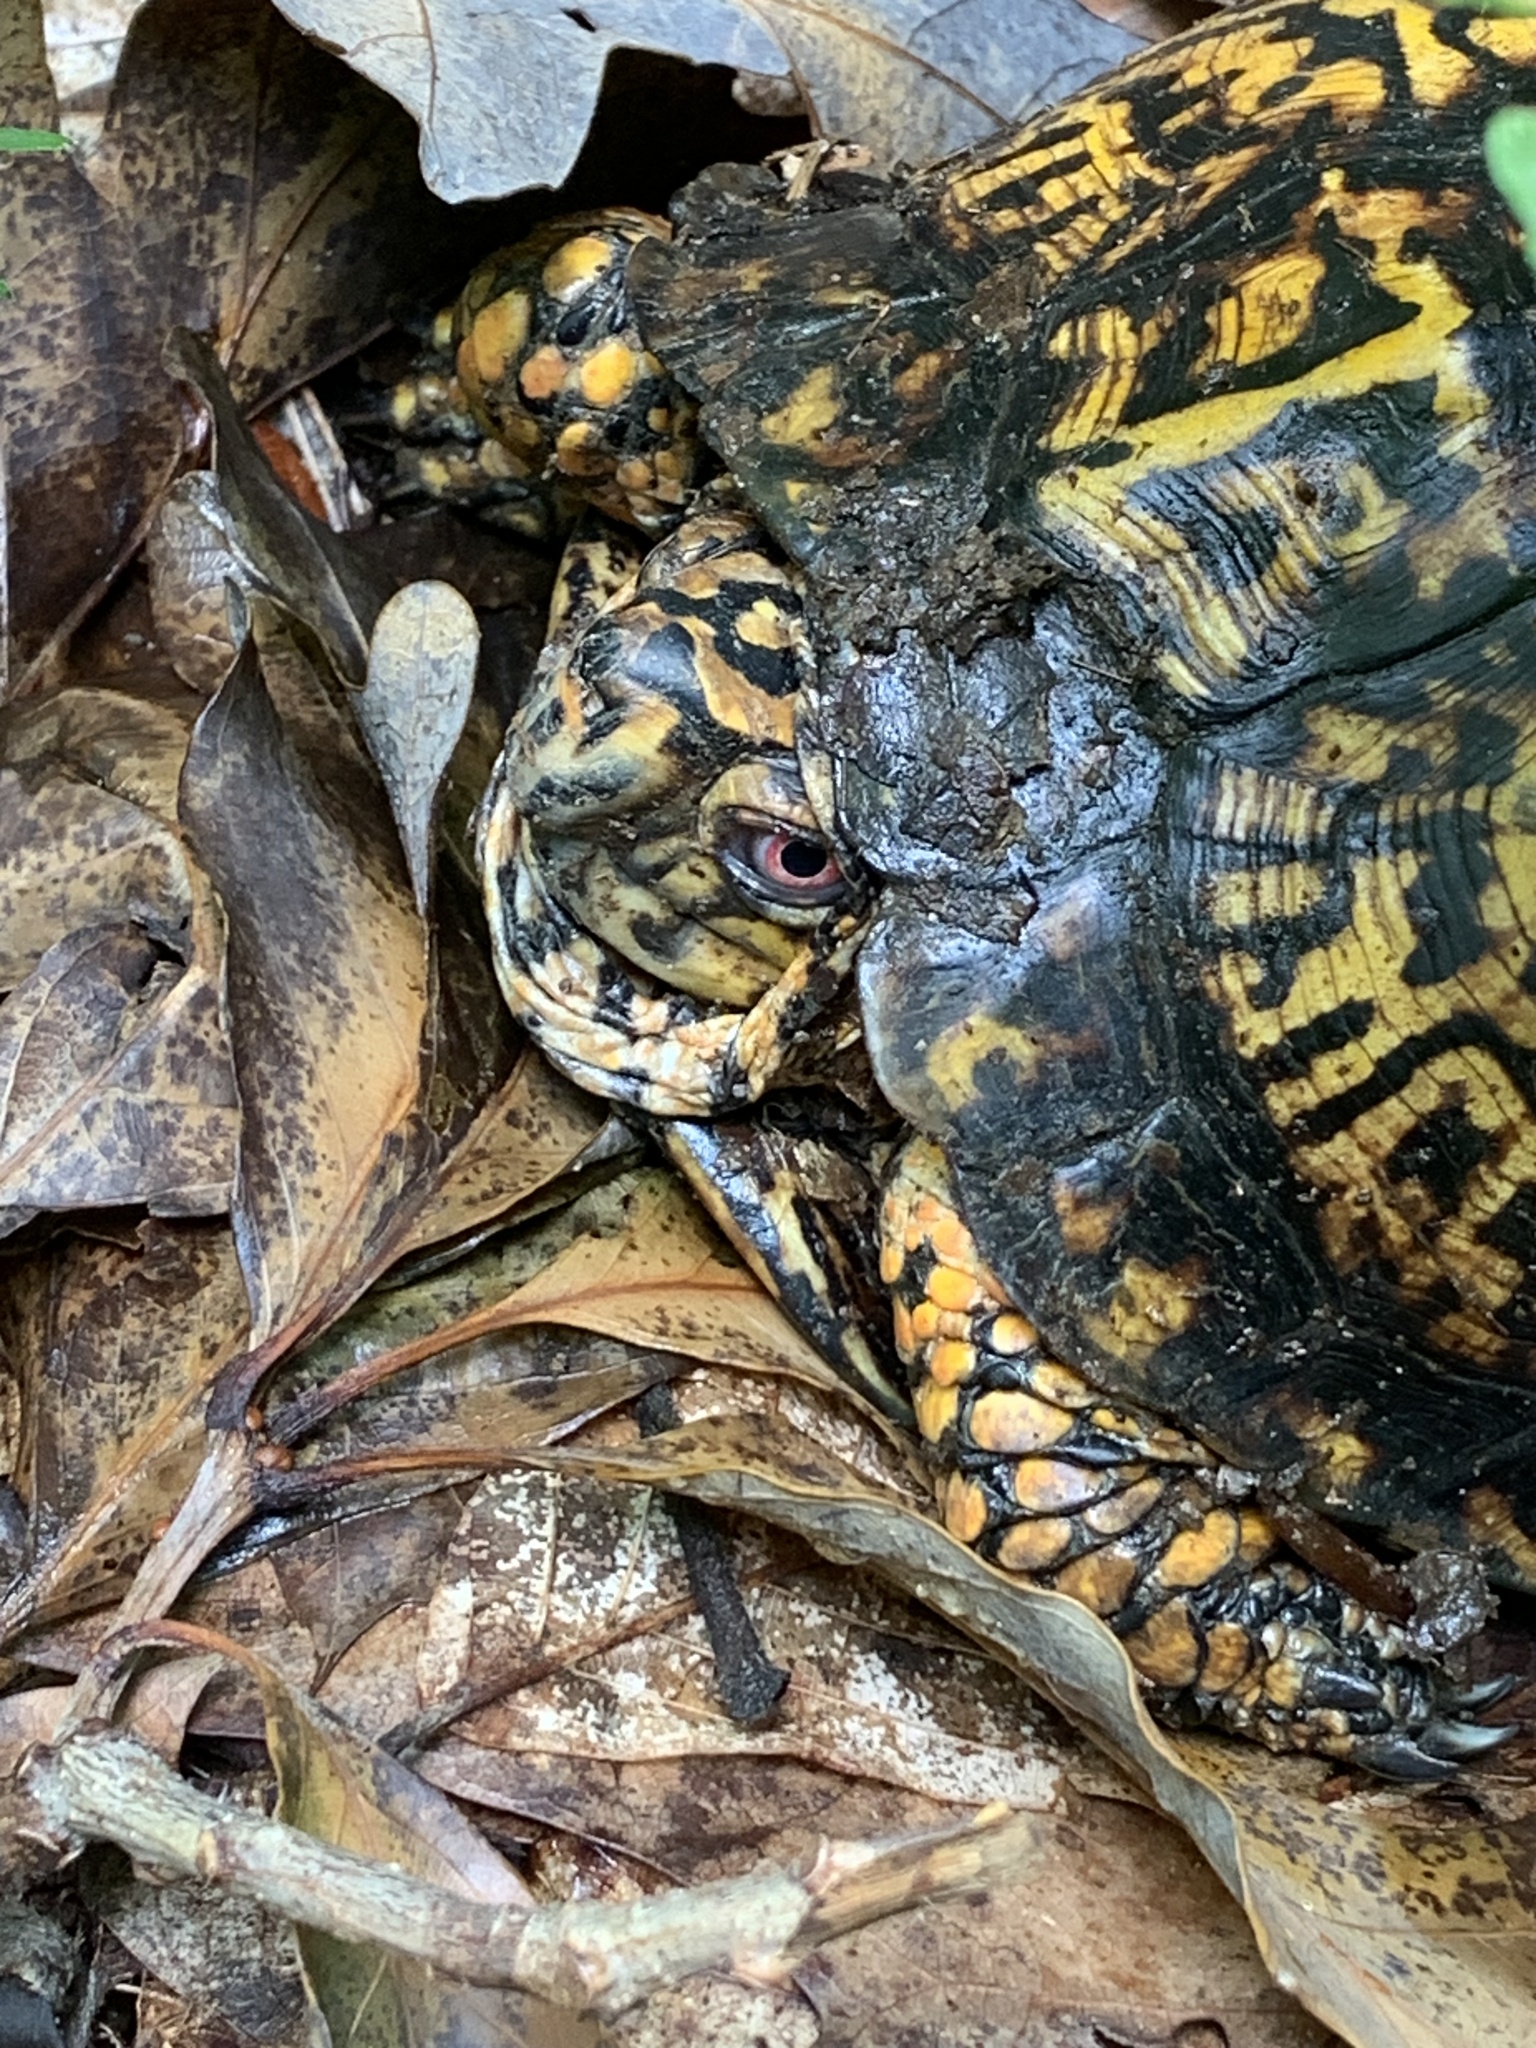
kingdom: Animalia
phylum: Chordata
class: Testudines
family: Emydidae
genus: Terrapene
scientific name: Terrapene carolina
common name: Common box turtle
